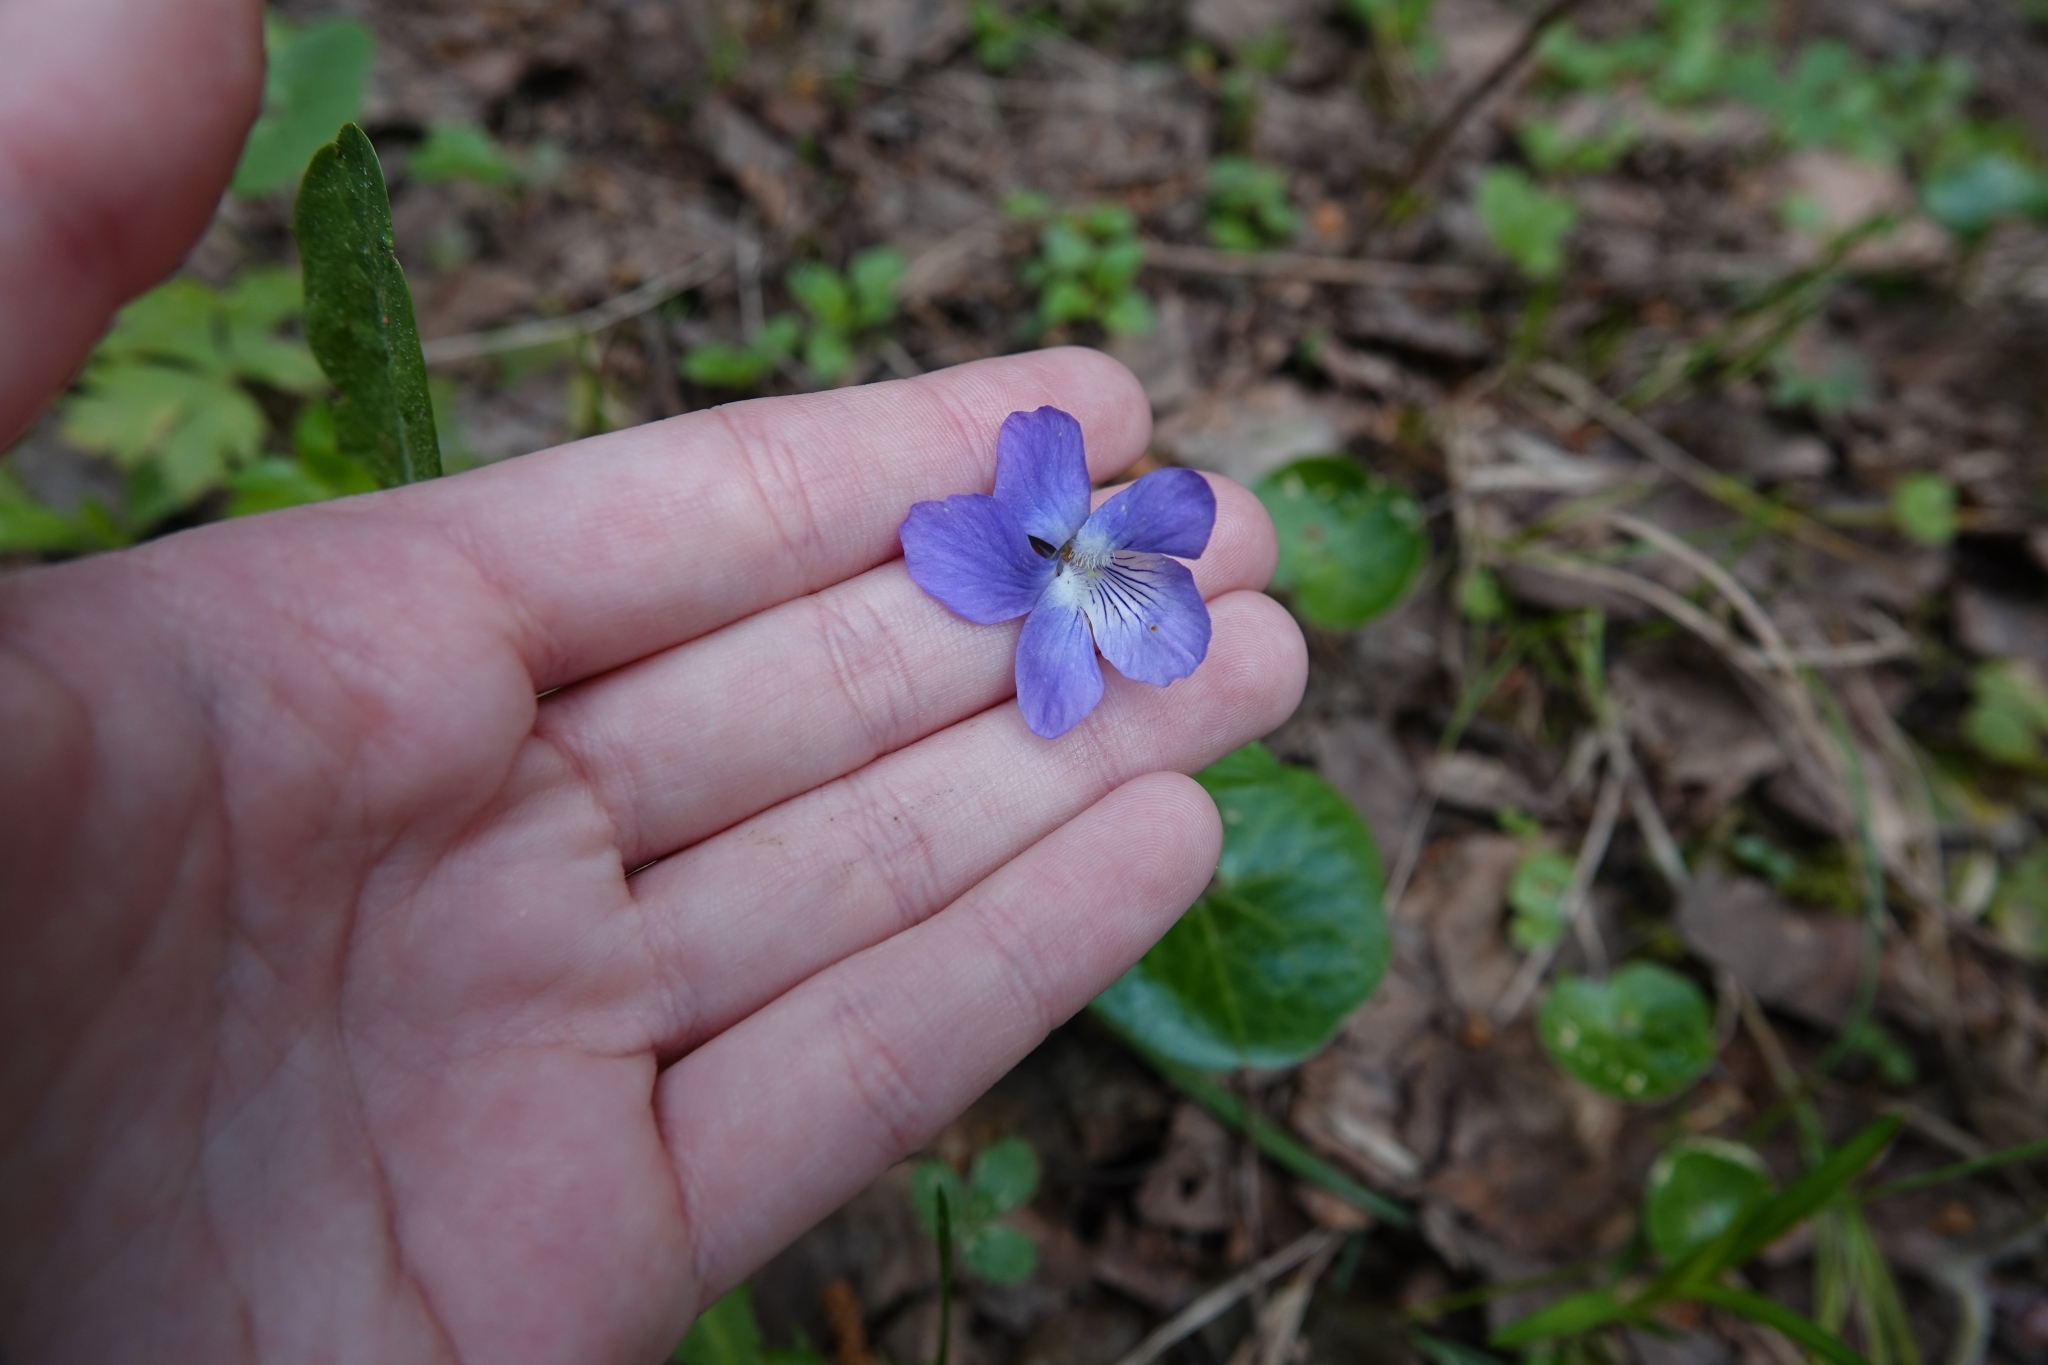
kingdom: Plantae
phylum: Tracheophyta
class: Magnoliopsida
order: Malpighiales
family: Violaceae
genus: Viola
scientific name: Viola riviniana
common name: Common dog-violet
